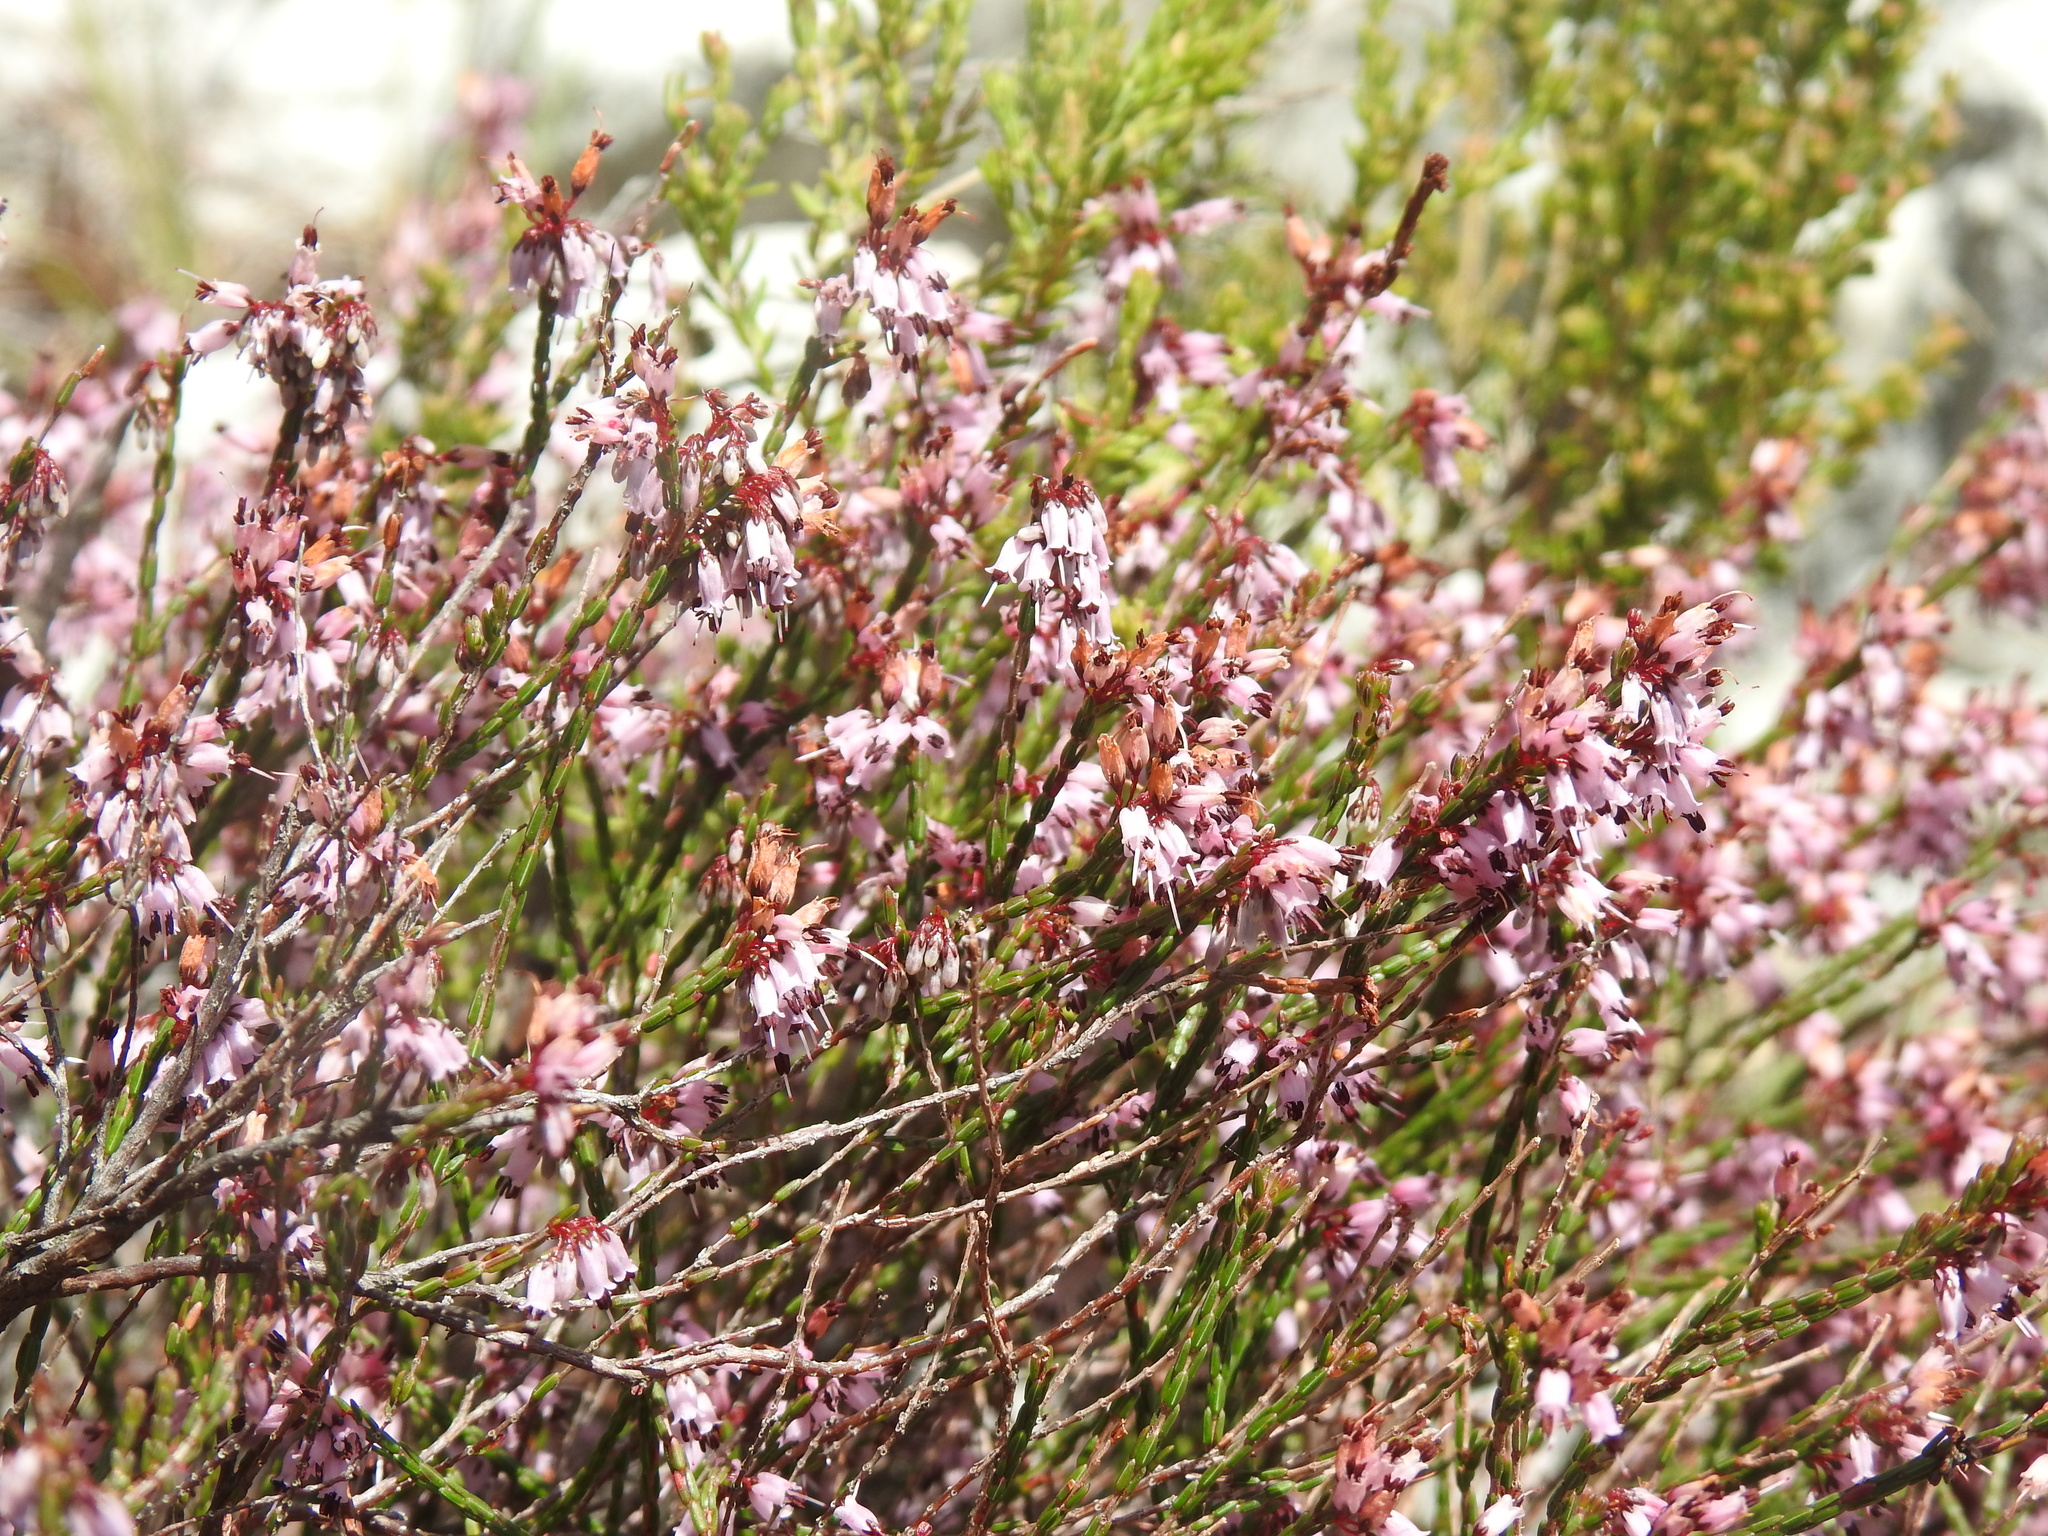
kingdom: Plantae
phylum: Tracheophyta
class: Magnoliopsida
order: Ericales
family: Ericaceae
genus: Erica
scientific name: Erica equisetifolia
